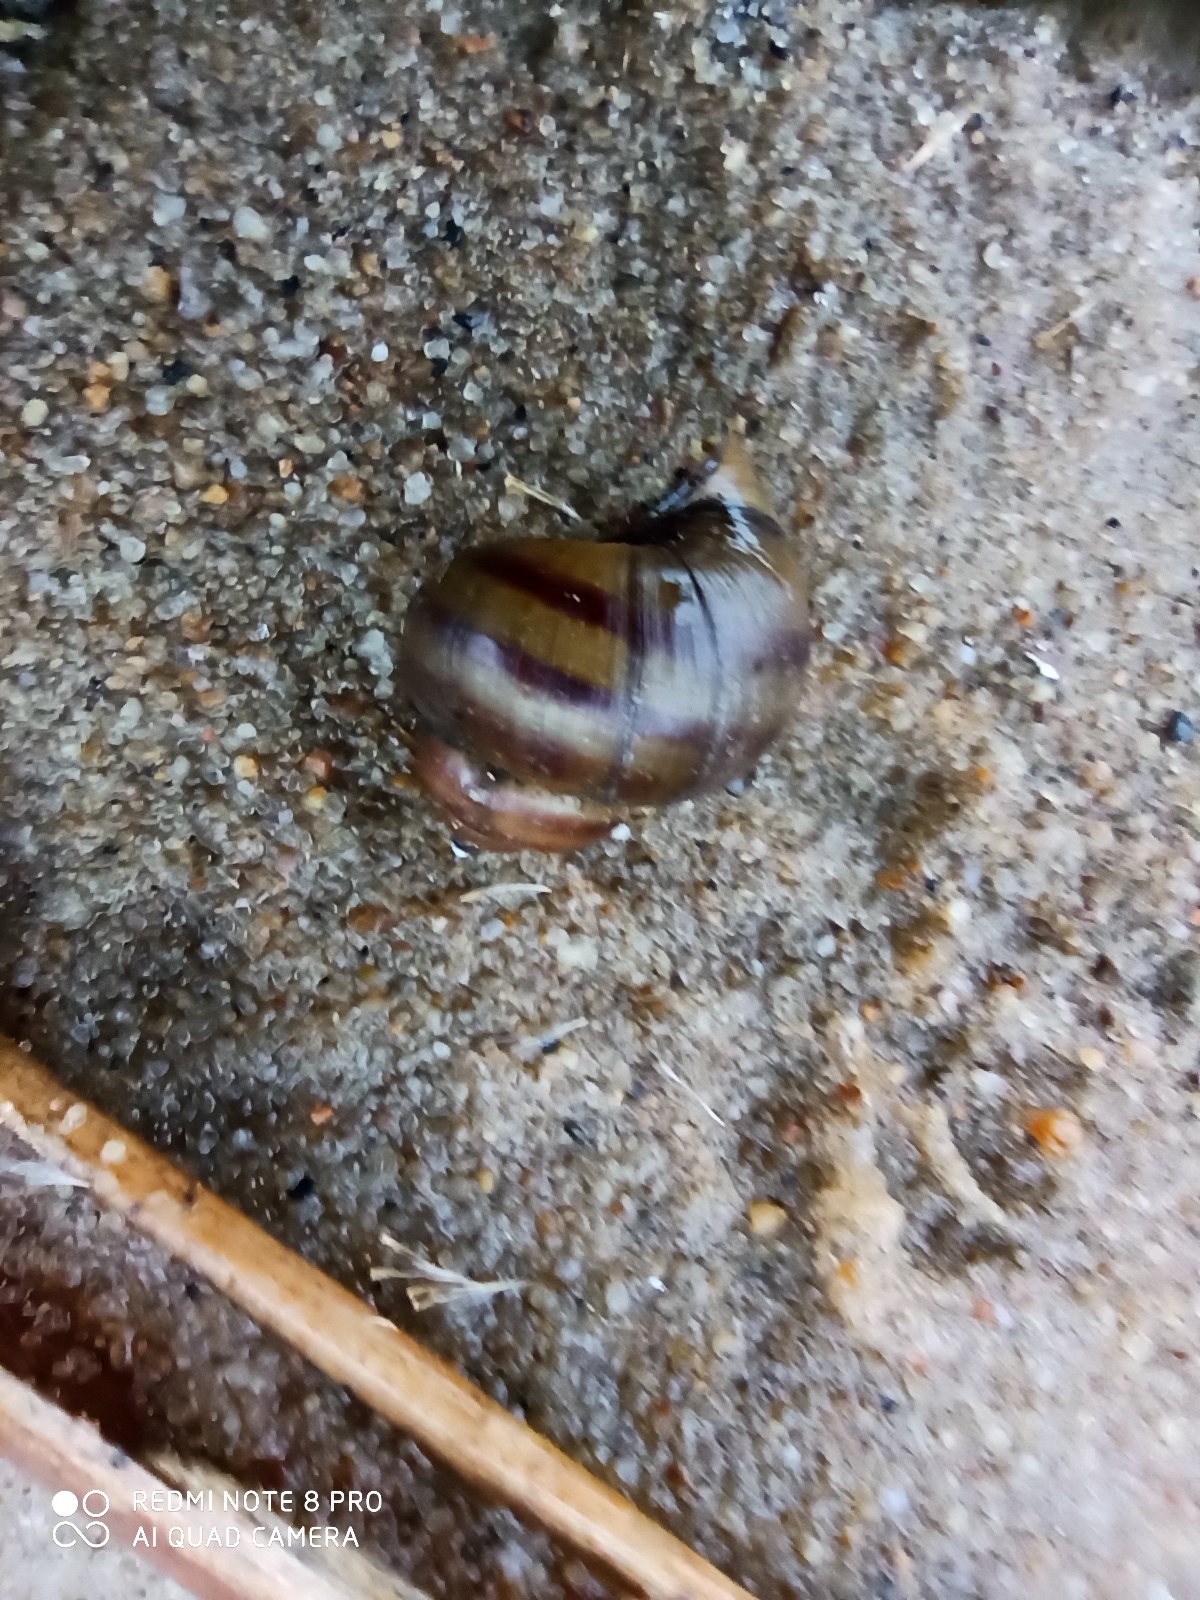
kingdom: Animalia
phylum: Mollusca
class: Gastropoda
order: Architaenioglossa
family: Viviparidae
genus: Viviparus
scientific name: Viviparus contectus
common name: Lister's river snail
